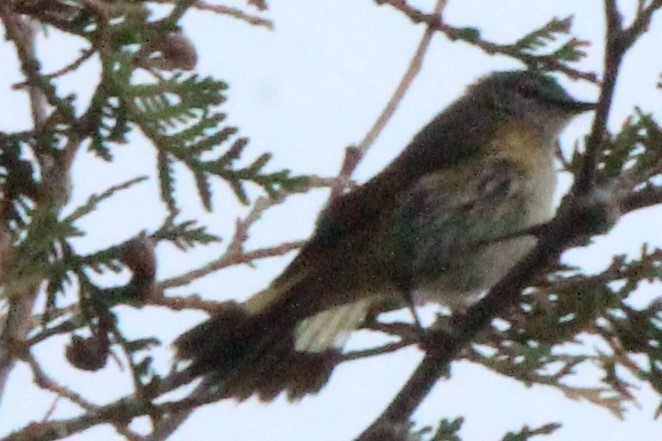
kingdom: Animalia
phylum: Chordata
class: Aves
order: Passeriformes
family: Parulidae
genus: Setophaga
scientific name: Setophaga ruticilla
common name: American redstart
